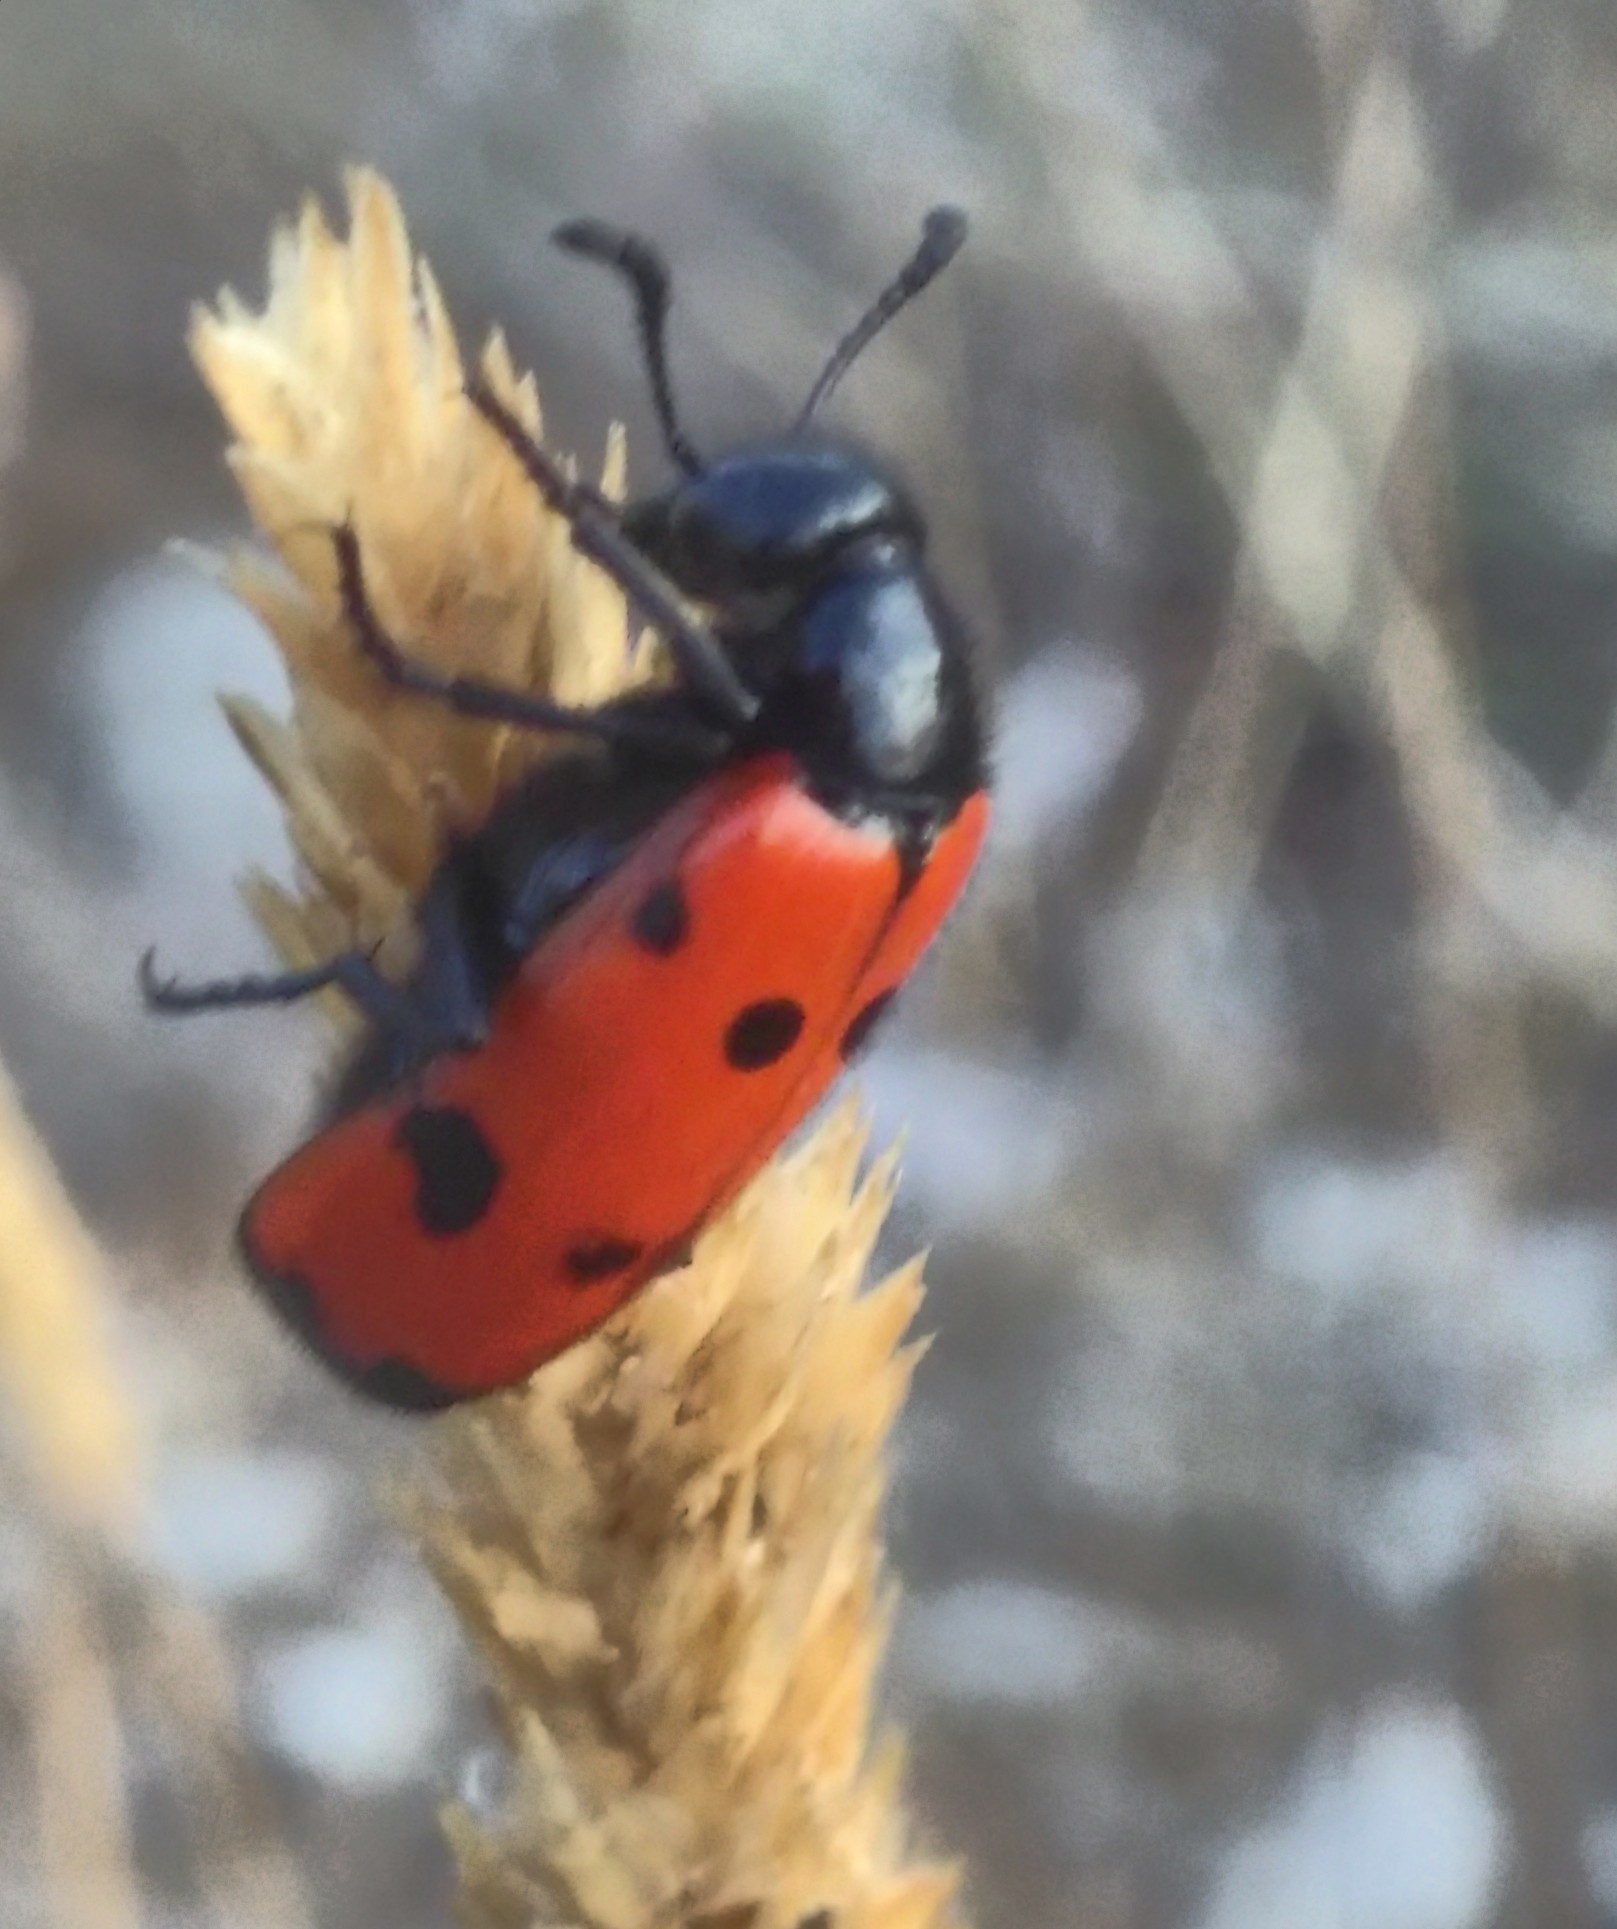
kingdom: Animalia
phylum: Arthropoda
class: Insecta
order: Coleoptera
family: Meloidae
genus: Mylabris
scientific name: Mylabris quadripunctata
